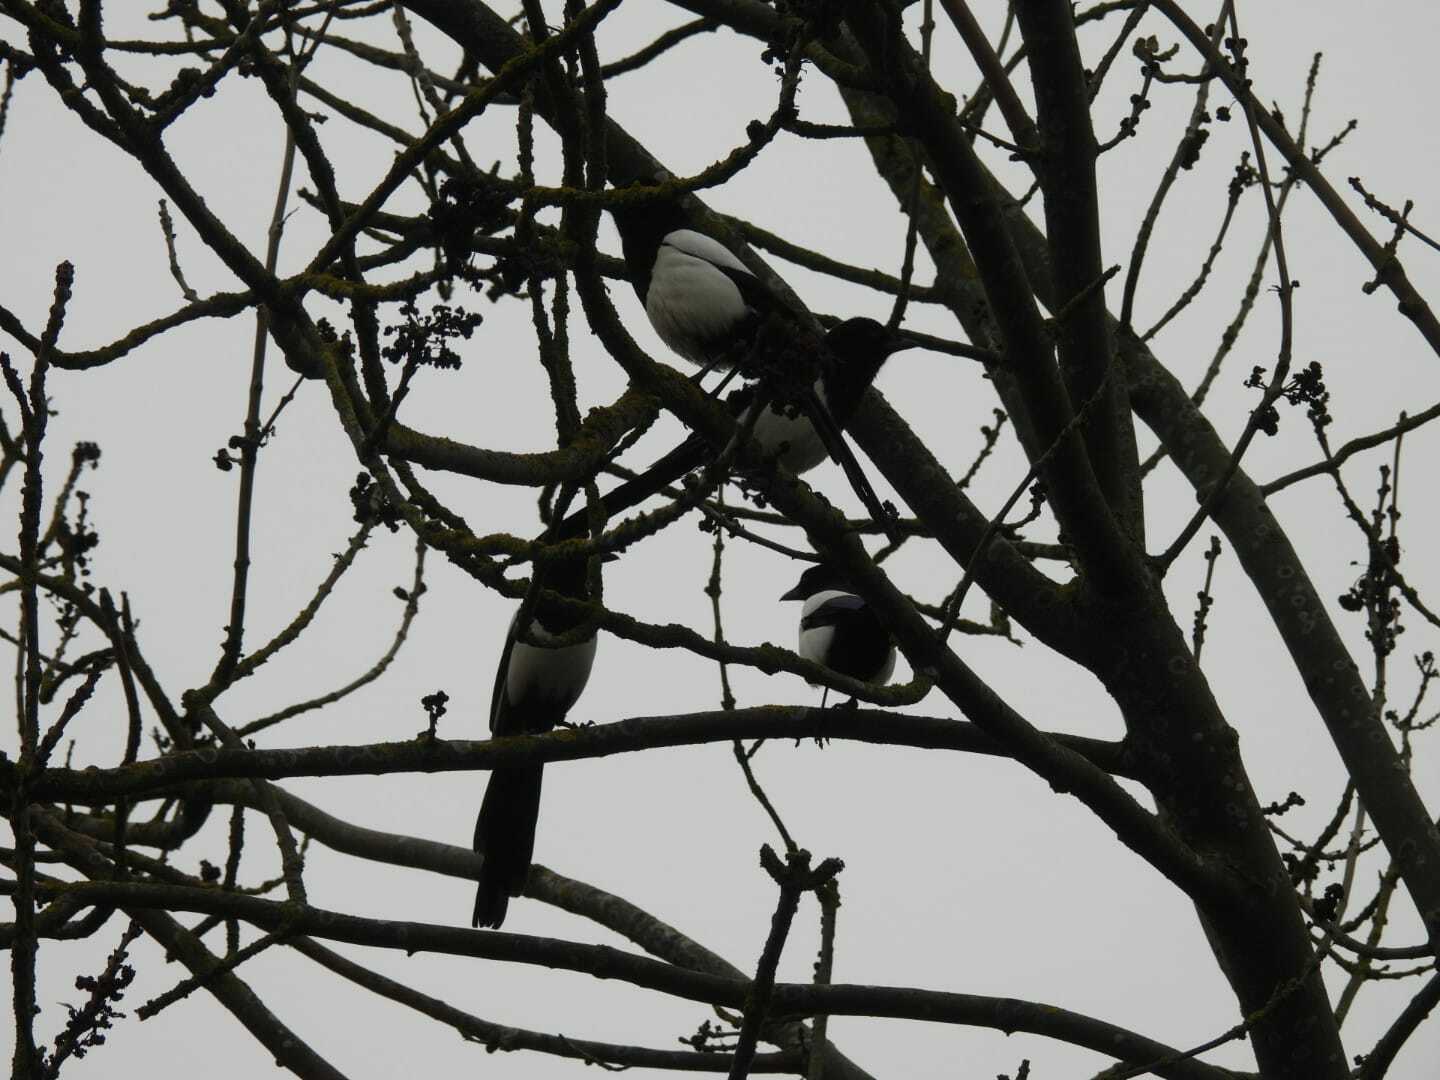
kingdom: Animalia
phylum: Chordata
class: Aves
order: Passeriformes
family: Corvidae
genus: Pica
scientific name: Pica pica
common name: Eurasian magpie
